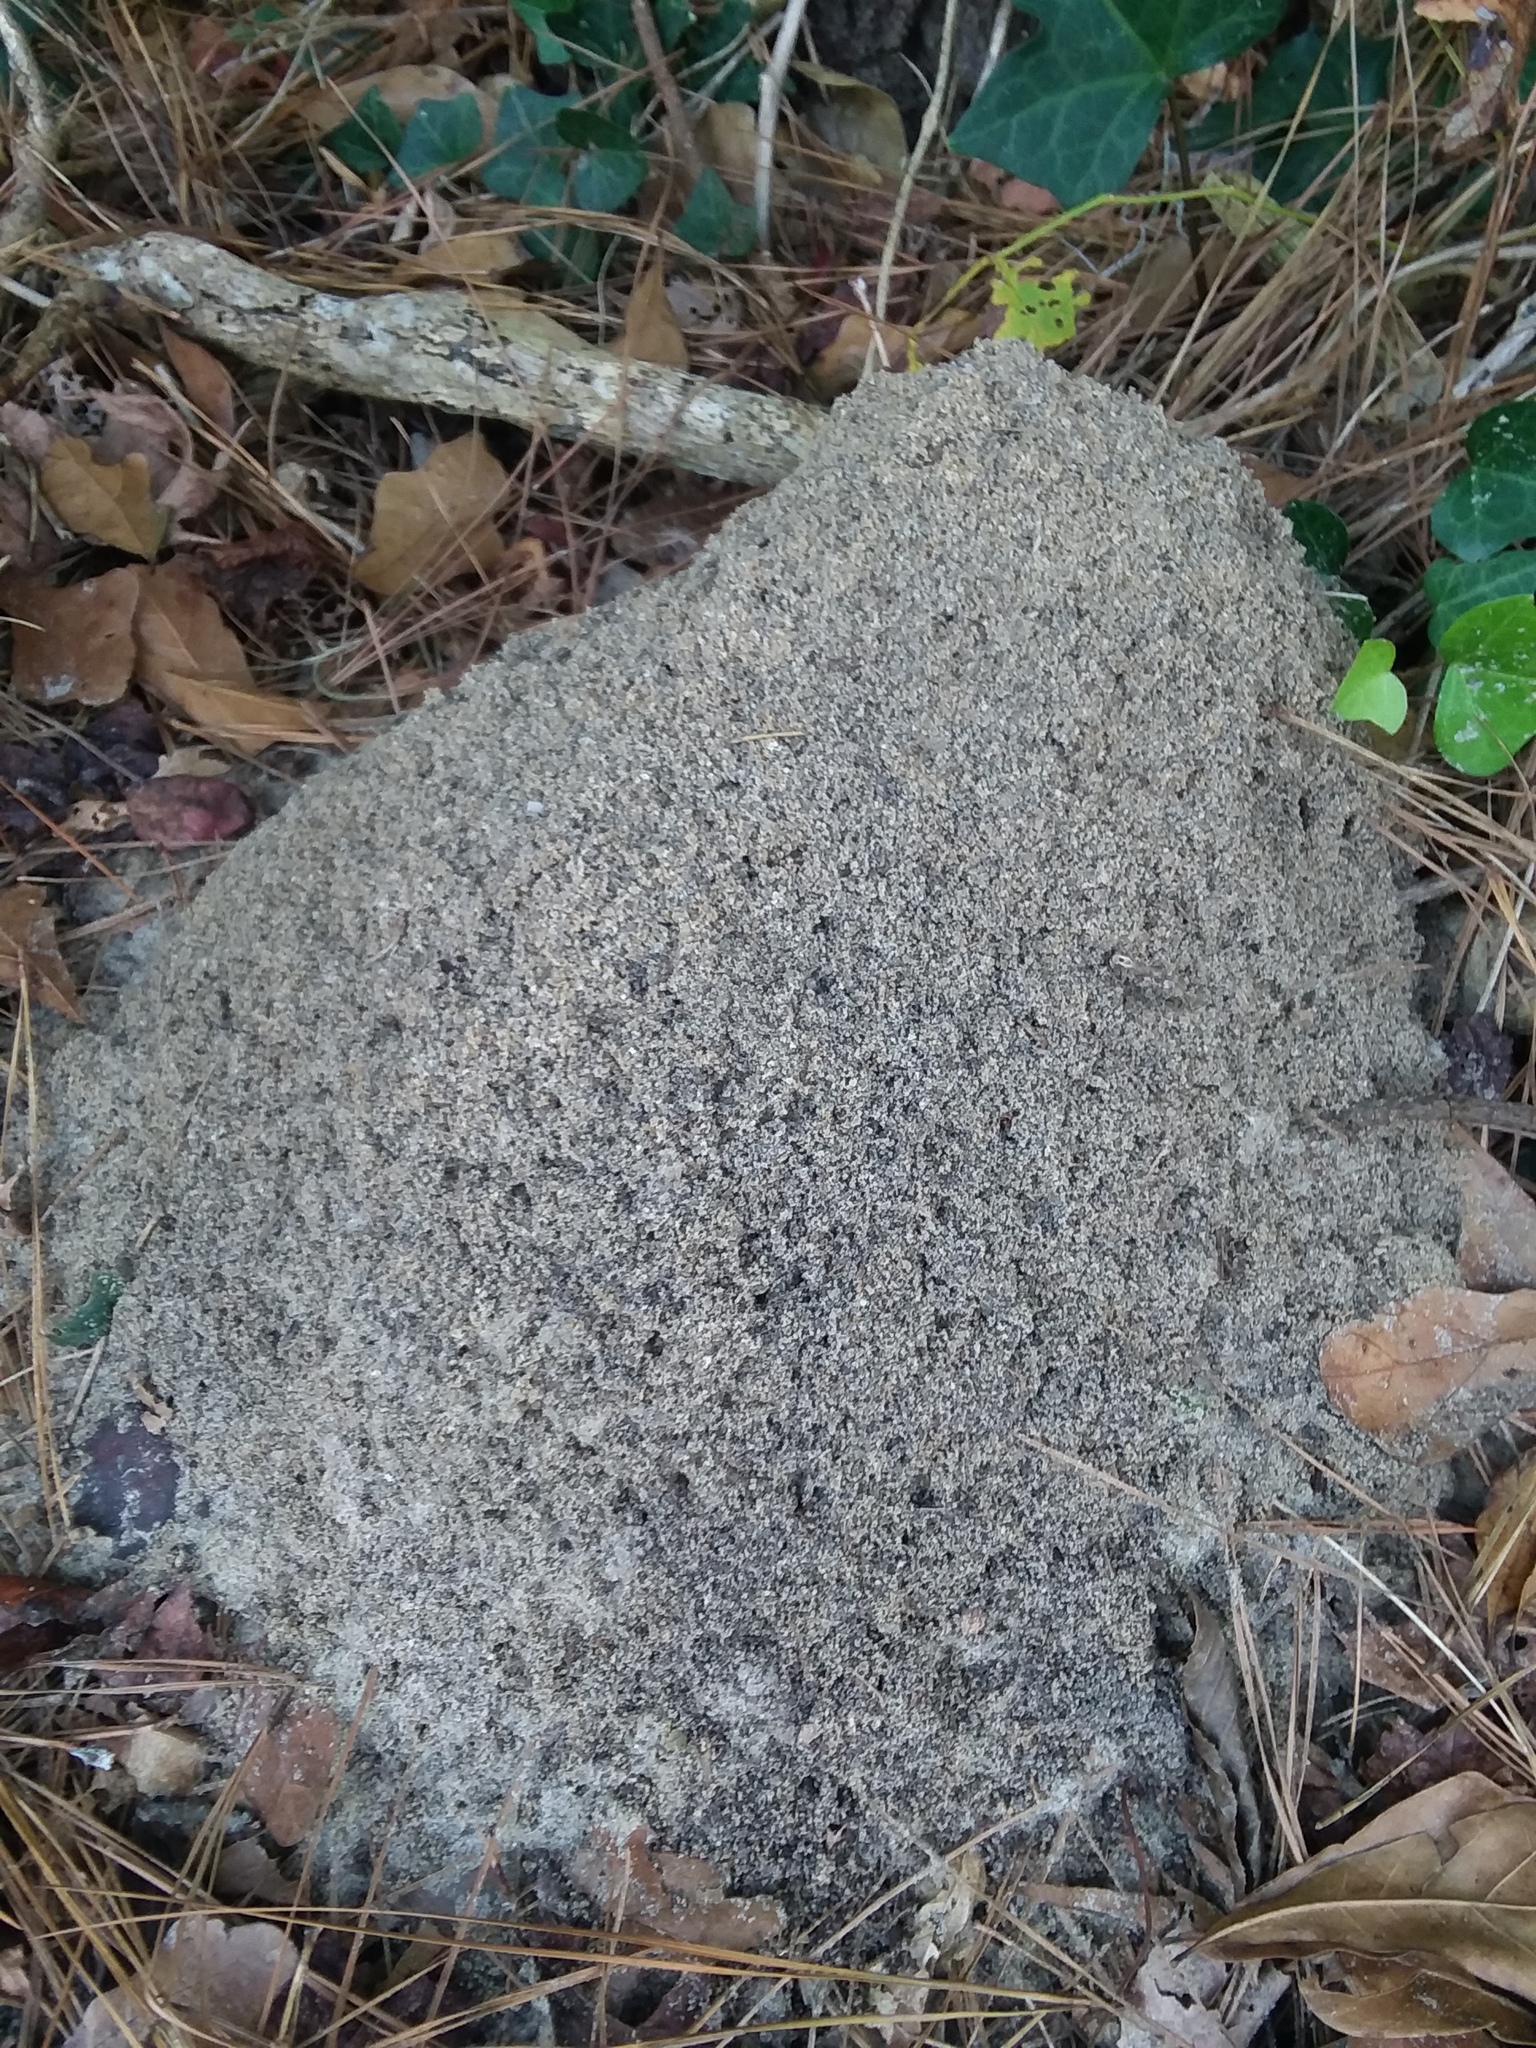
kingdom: Animalia
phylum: Arthropoda
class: Insecta
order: Hymenoptera
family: Formicidae
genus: Solenopsis
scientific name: Solenopsis invicta
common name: Red imported fire ant
